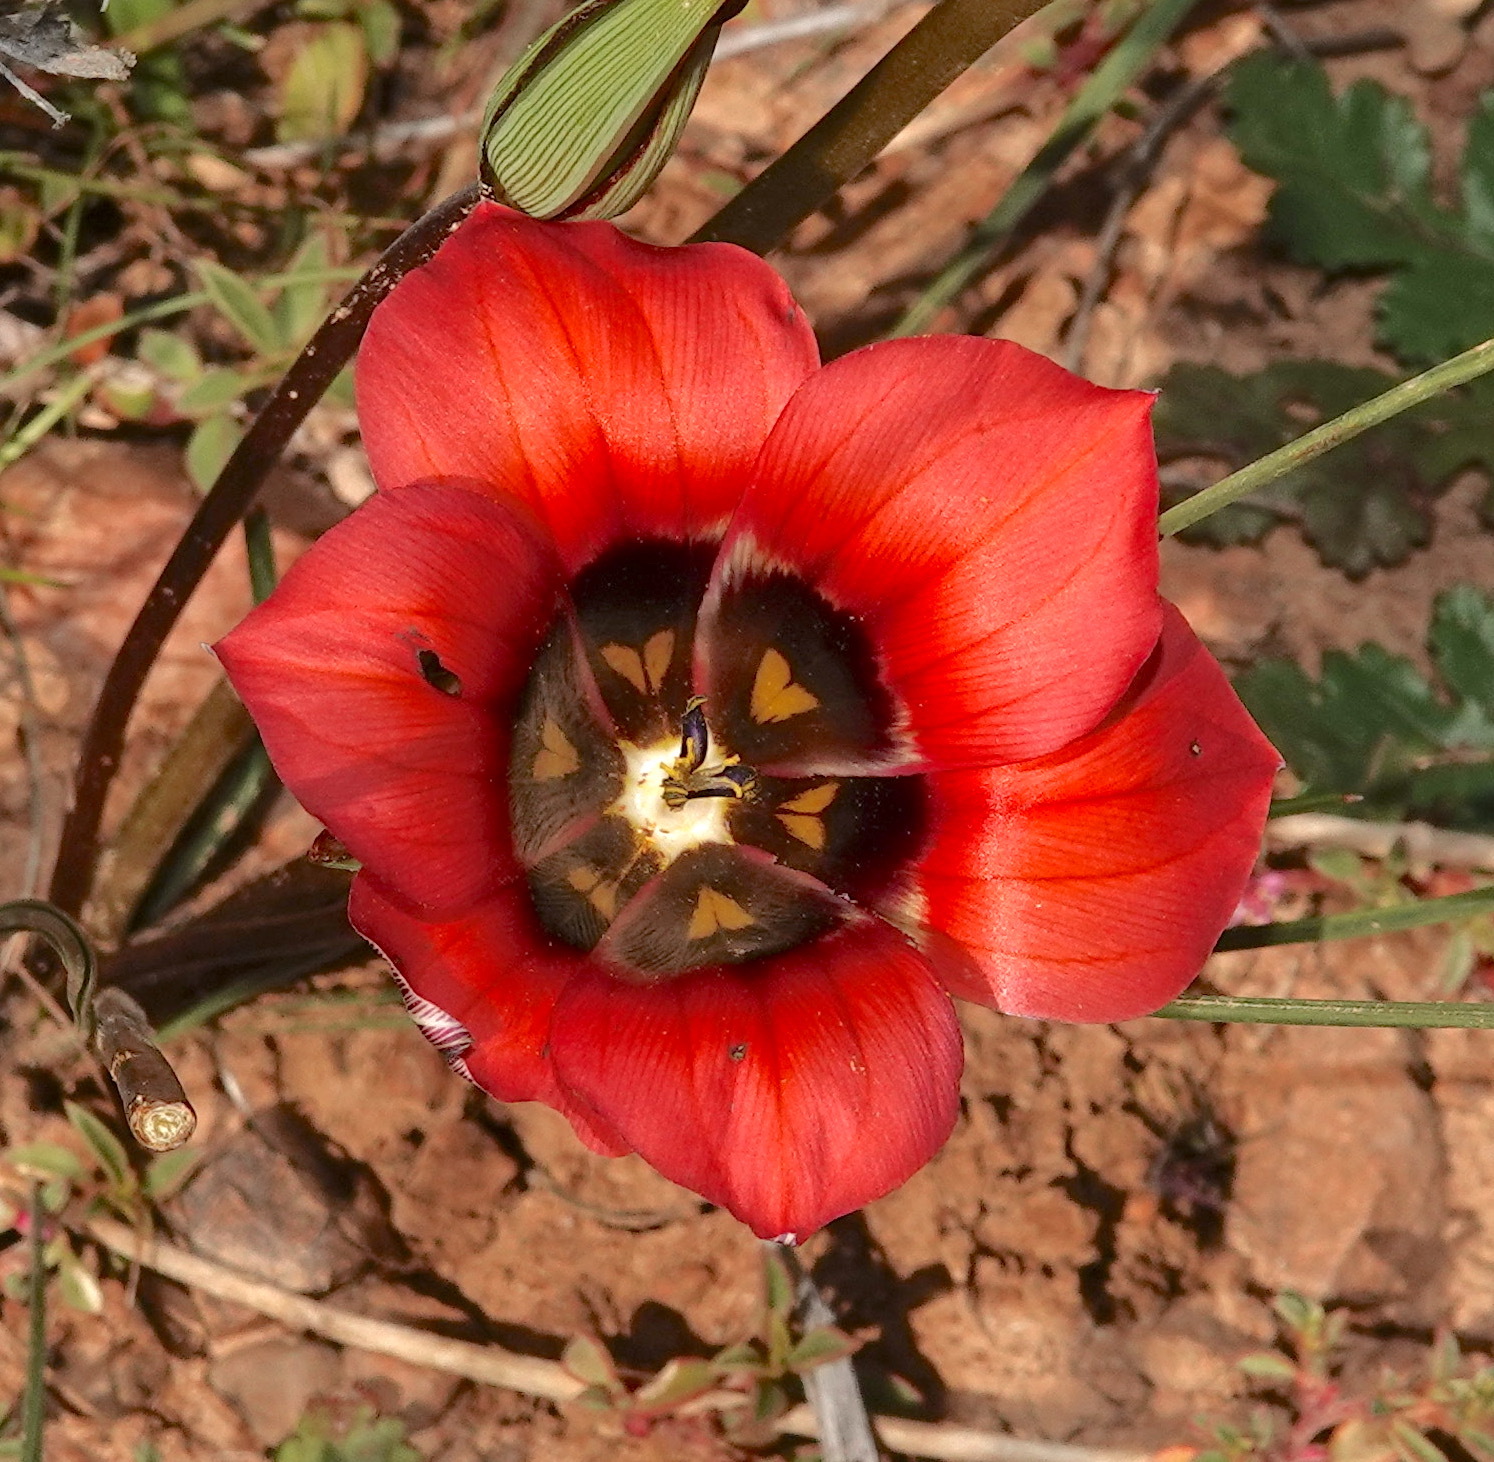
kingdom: Plantae
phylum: Tracheophyta
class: Liliopsida
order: Asparagales
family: Iridaceae
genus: Romulea
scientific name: Romulea monadelpha
